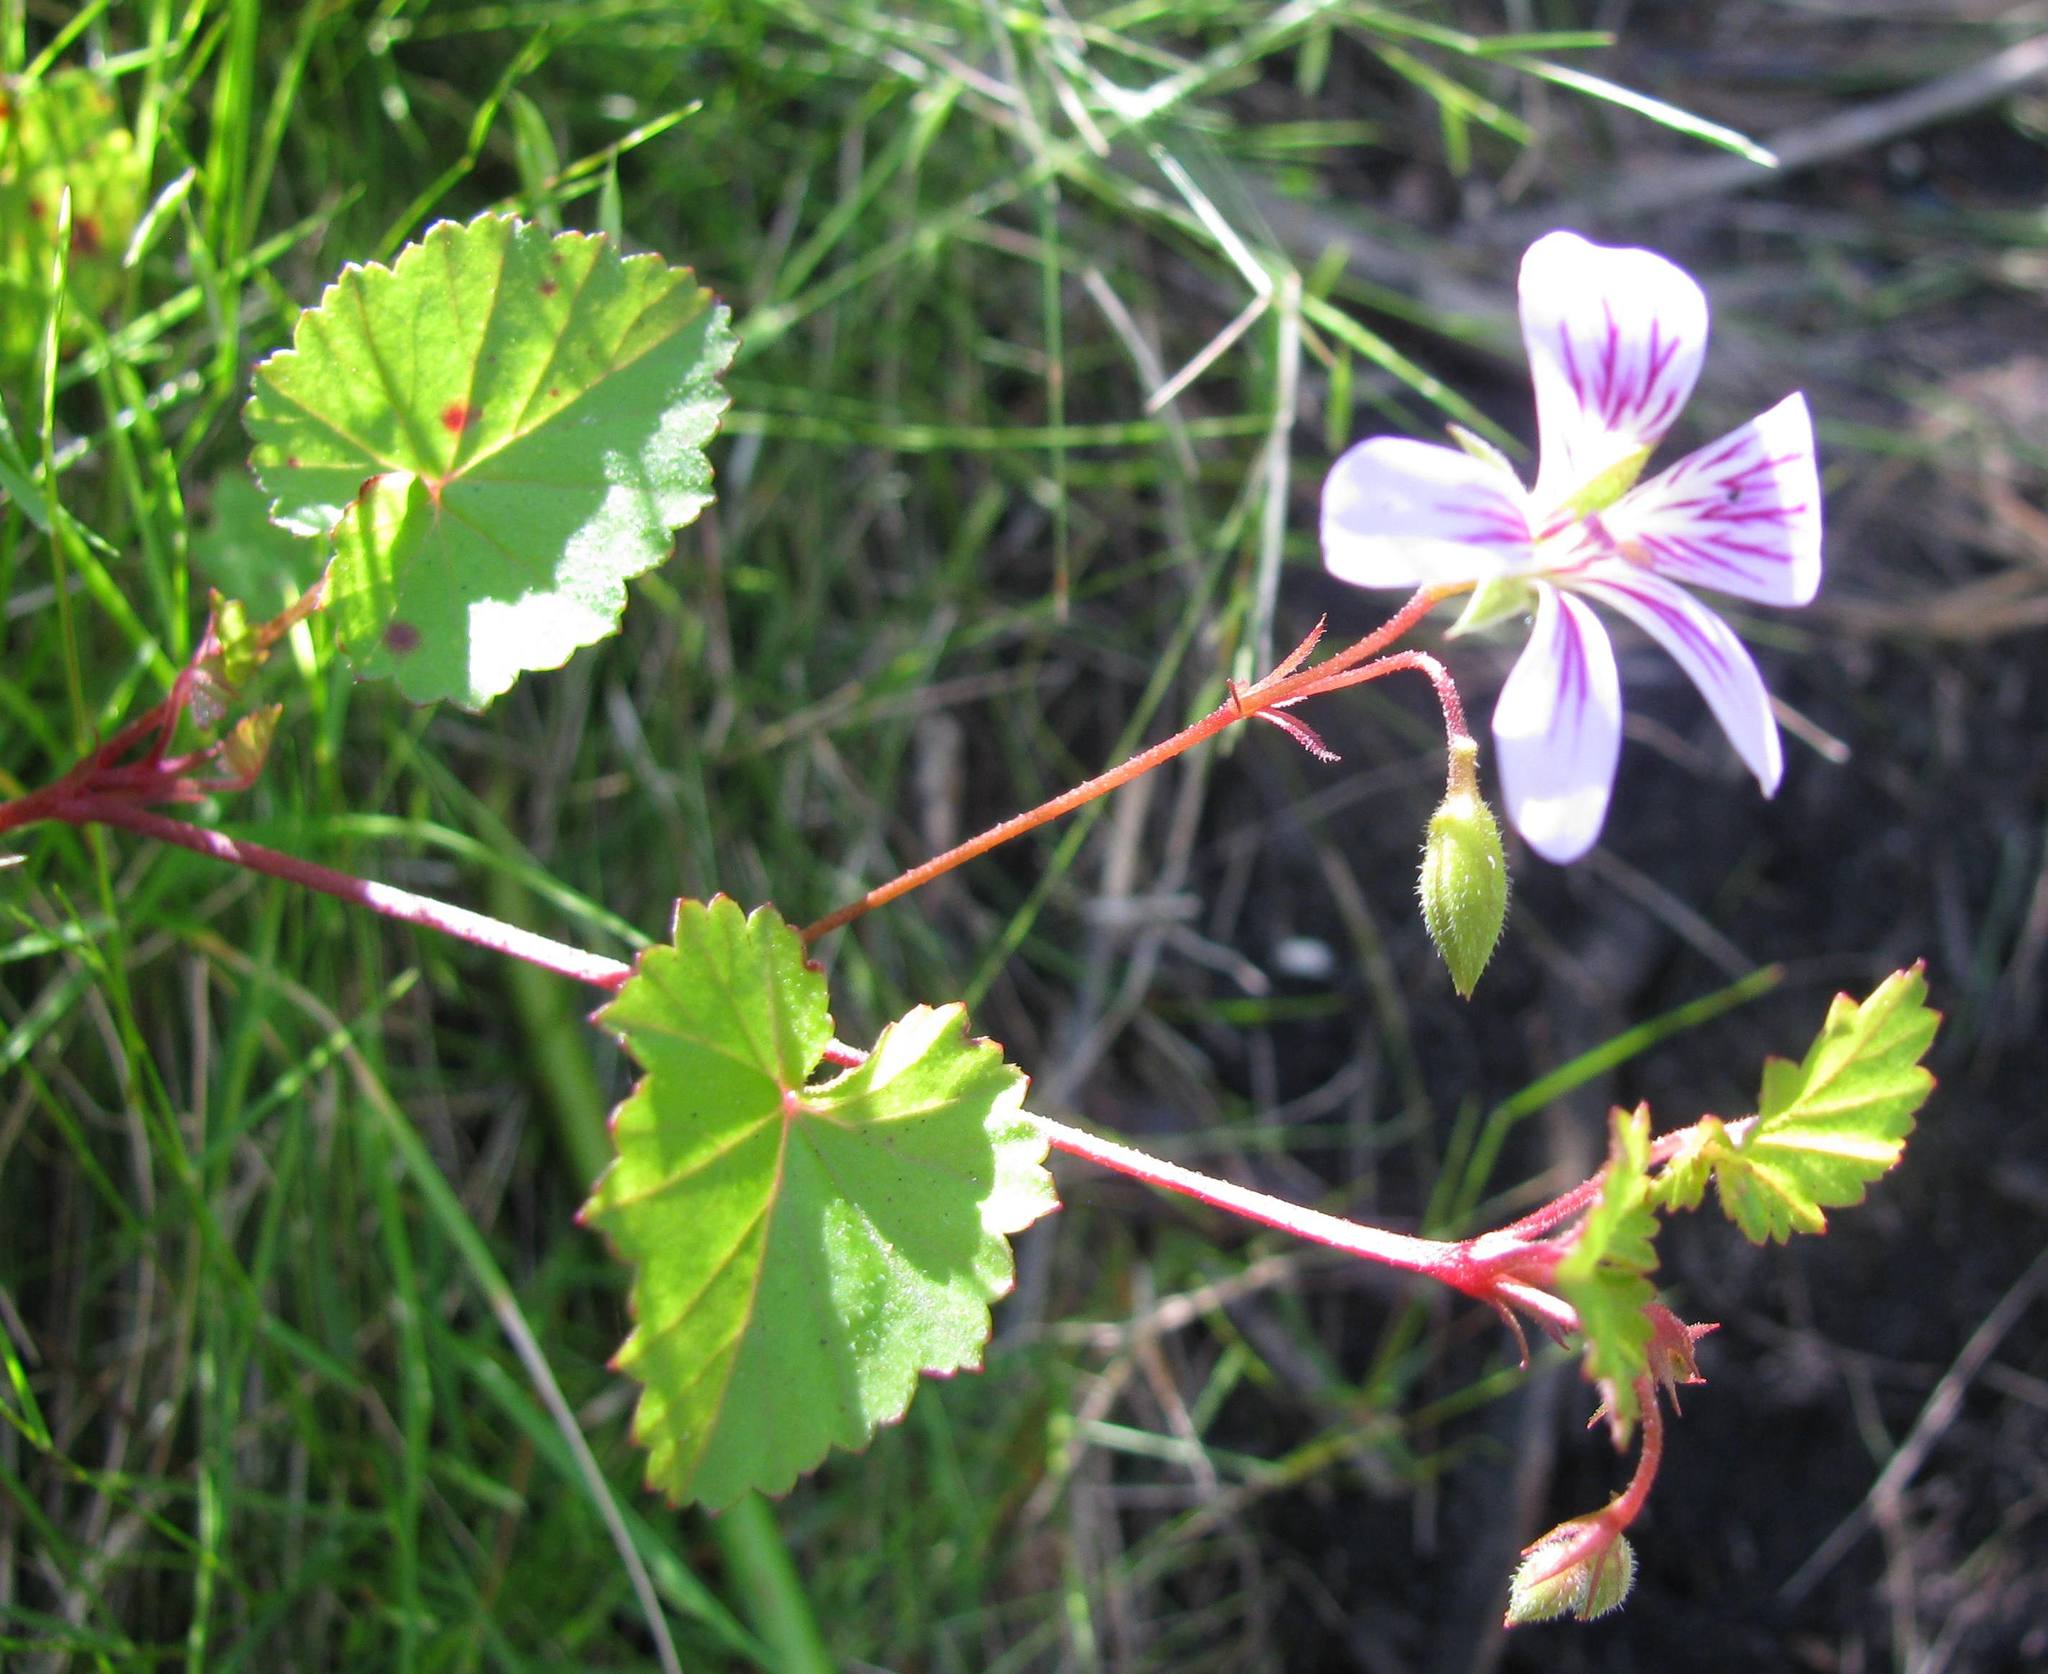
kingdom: Plantae
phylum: Tracheophyta
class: Magnoliopsida
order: Geraniales
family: Geraniaceae
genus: Pelargonium
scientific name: Pelargonium pseudosetulosum
